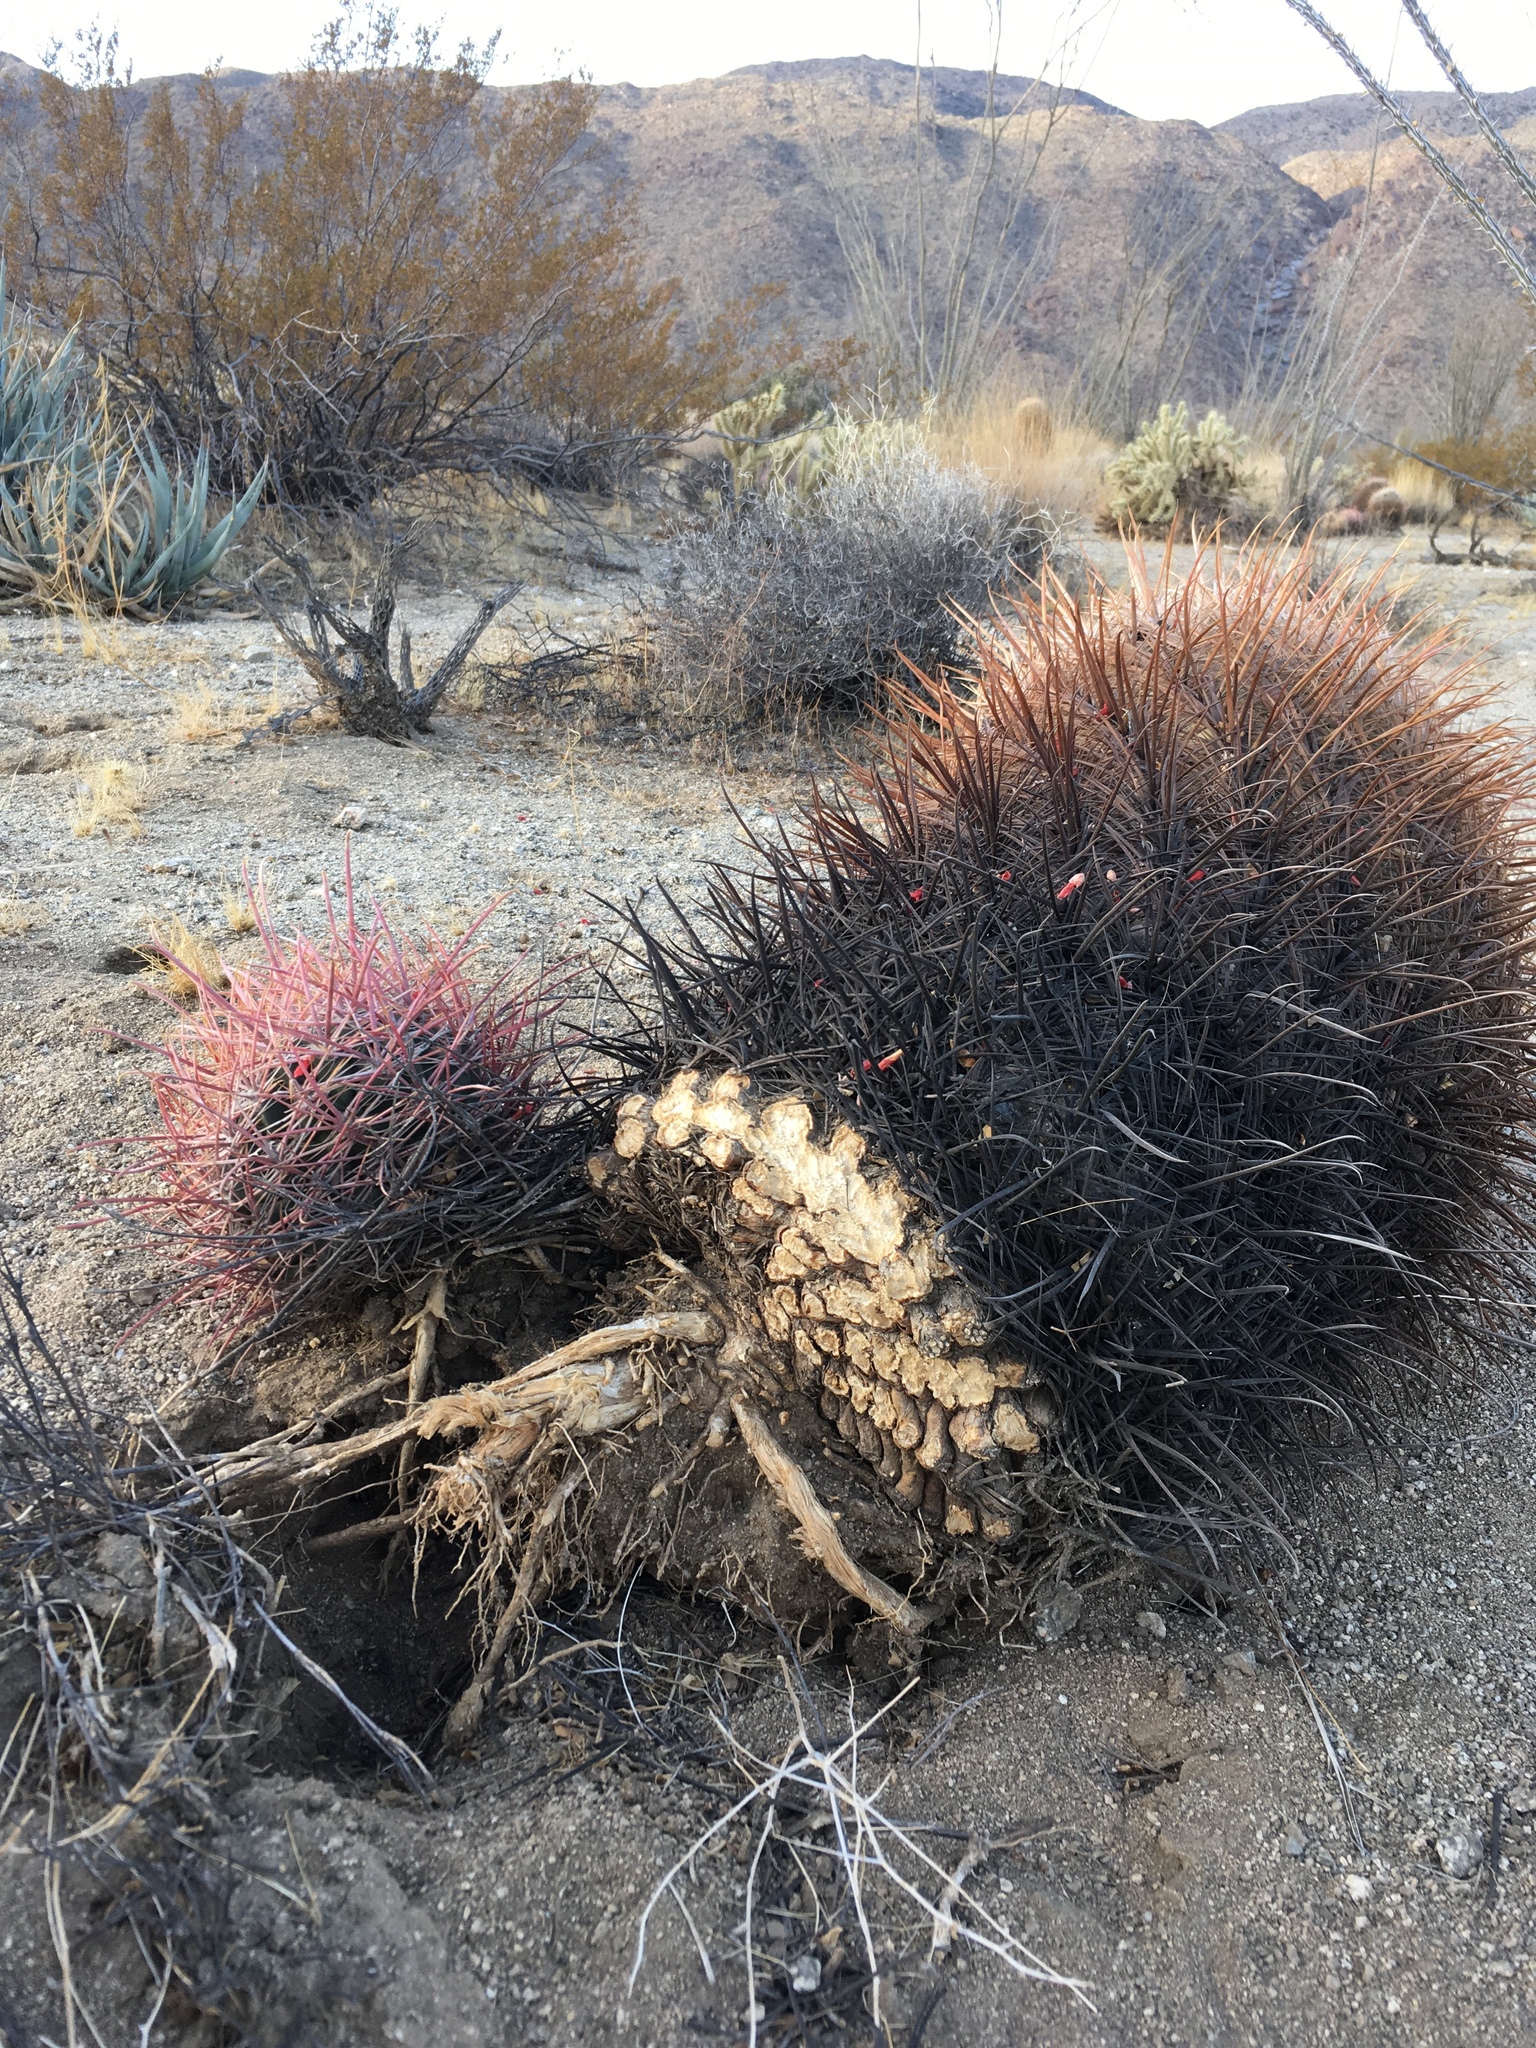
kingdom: Plantae
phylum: Tracheophyta
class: Magnoliopsida
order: Caryophyllales
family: Cactaceae
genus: Ferocactus
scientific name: Ferocactus cylindraceus
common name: California barrel cactus
